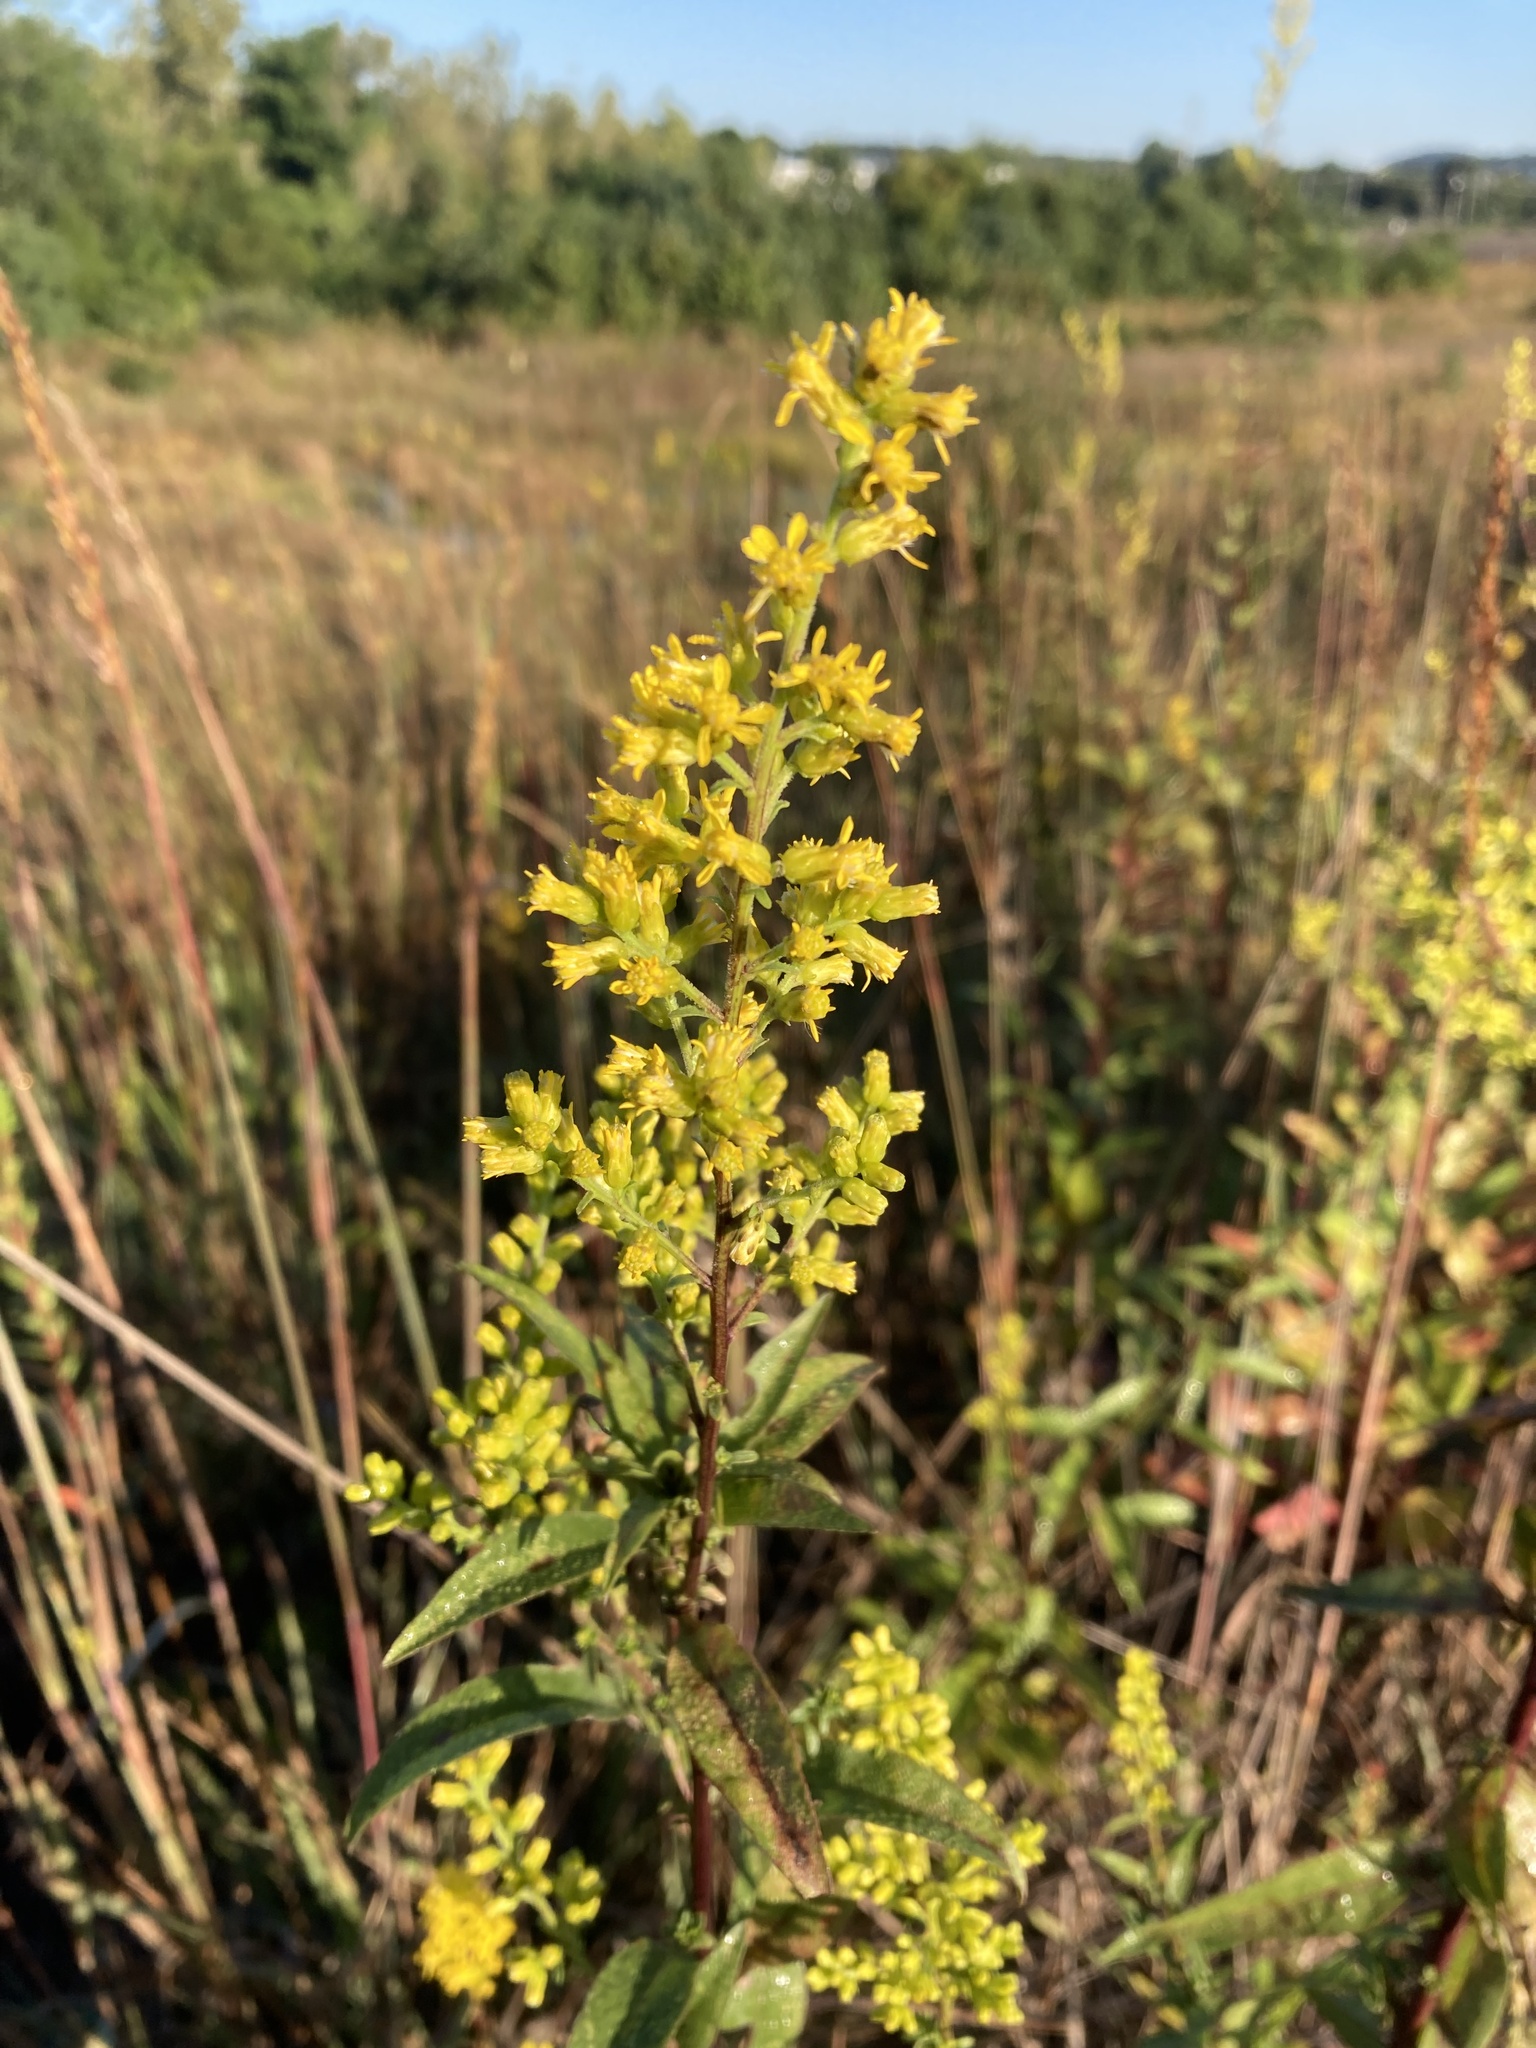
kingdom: Plantae
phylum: Tracheophyta
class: Magnoliopsida
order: Asterales
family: Asteraceae
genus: Solidago
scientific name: Solidago speciosa
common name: Showy goldenrod
